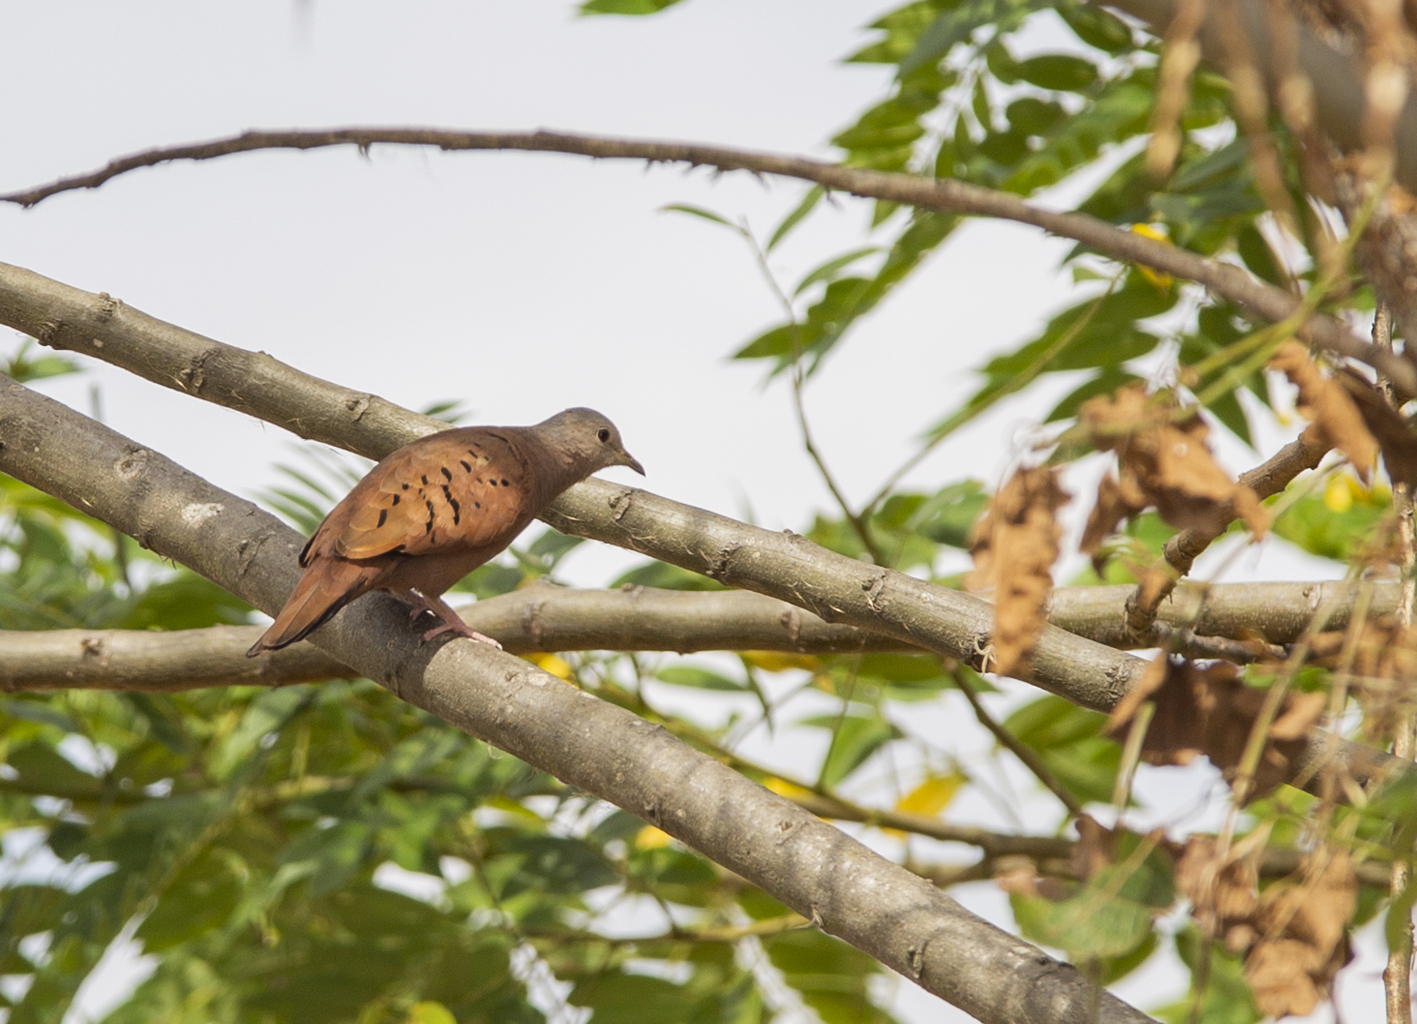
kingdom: Animalia
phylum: Chordata
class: Aves
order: Columbiformes
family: Columbidae
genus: Columbina
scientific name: Columbina talpacoti
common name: Ruddy ground dove
